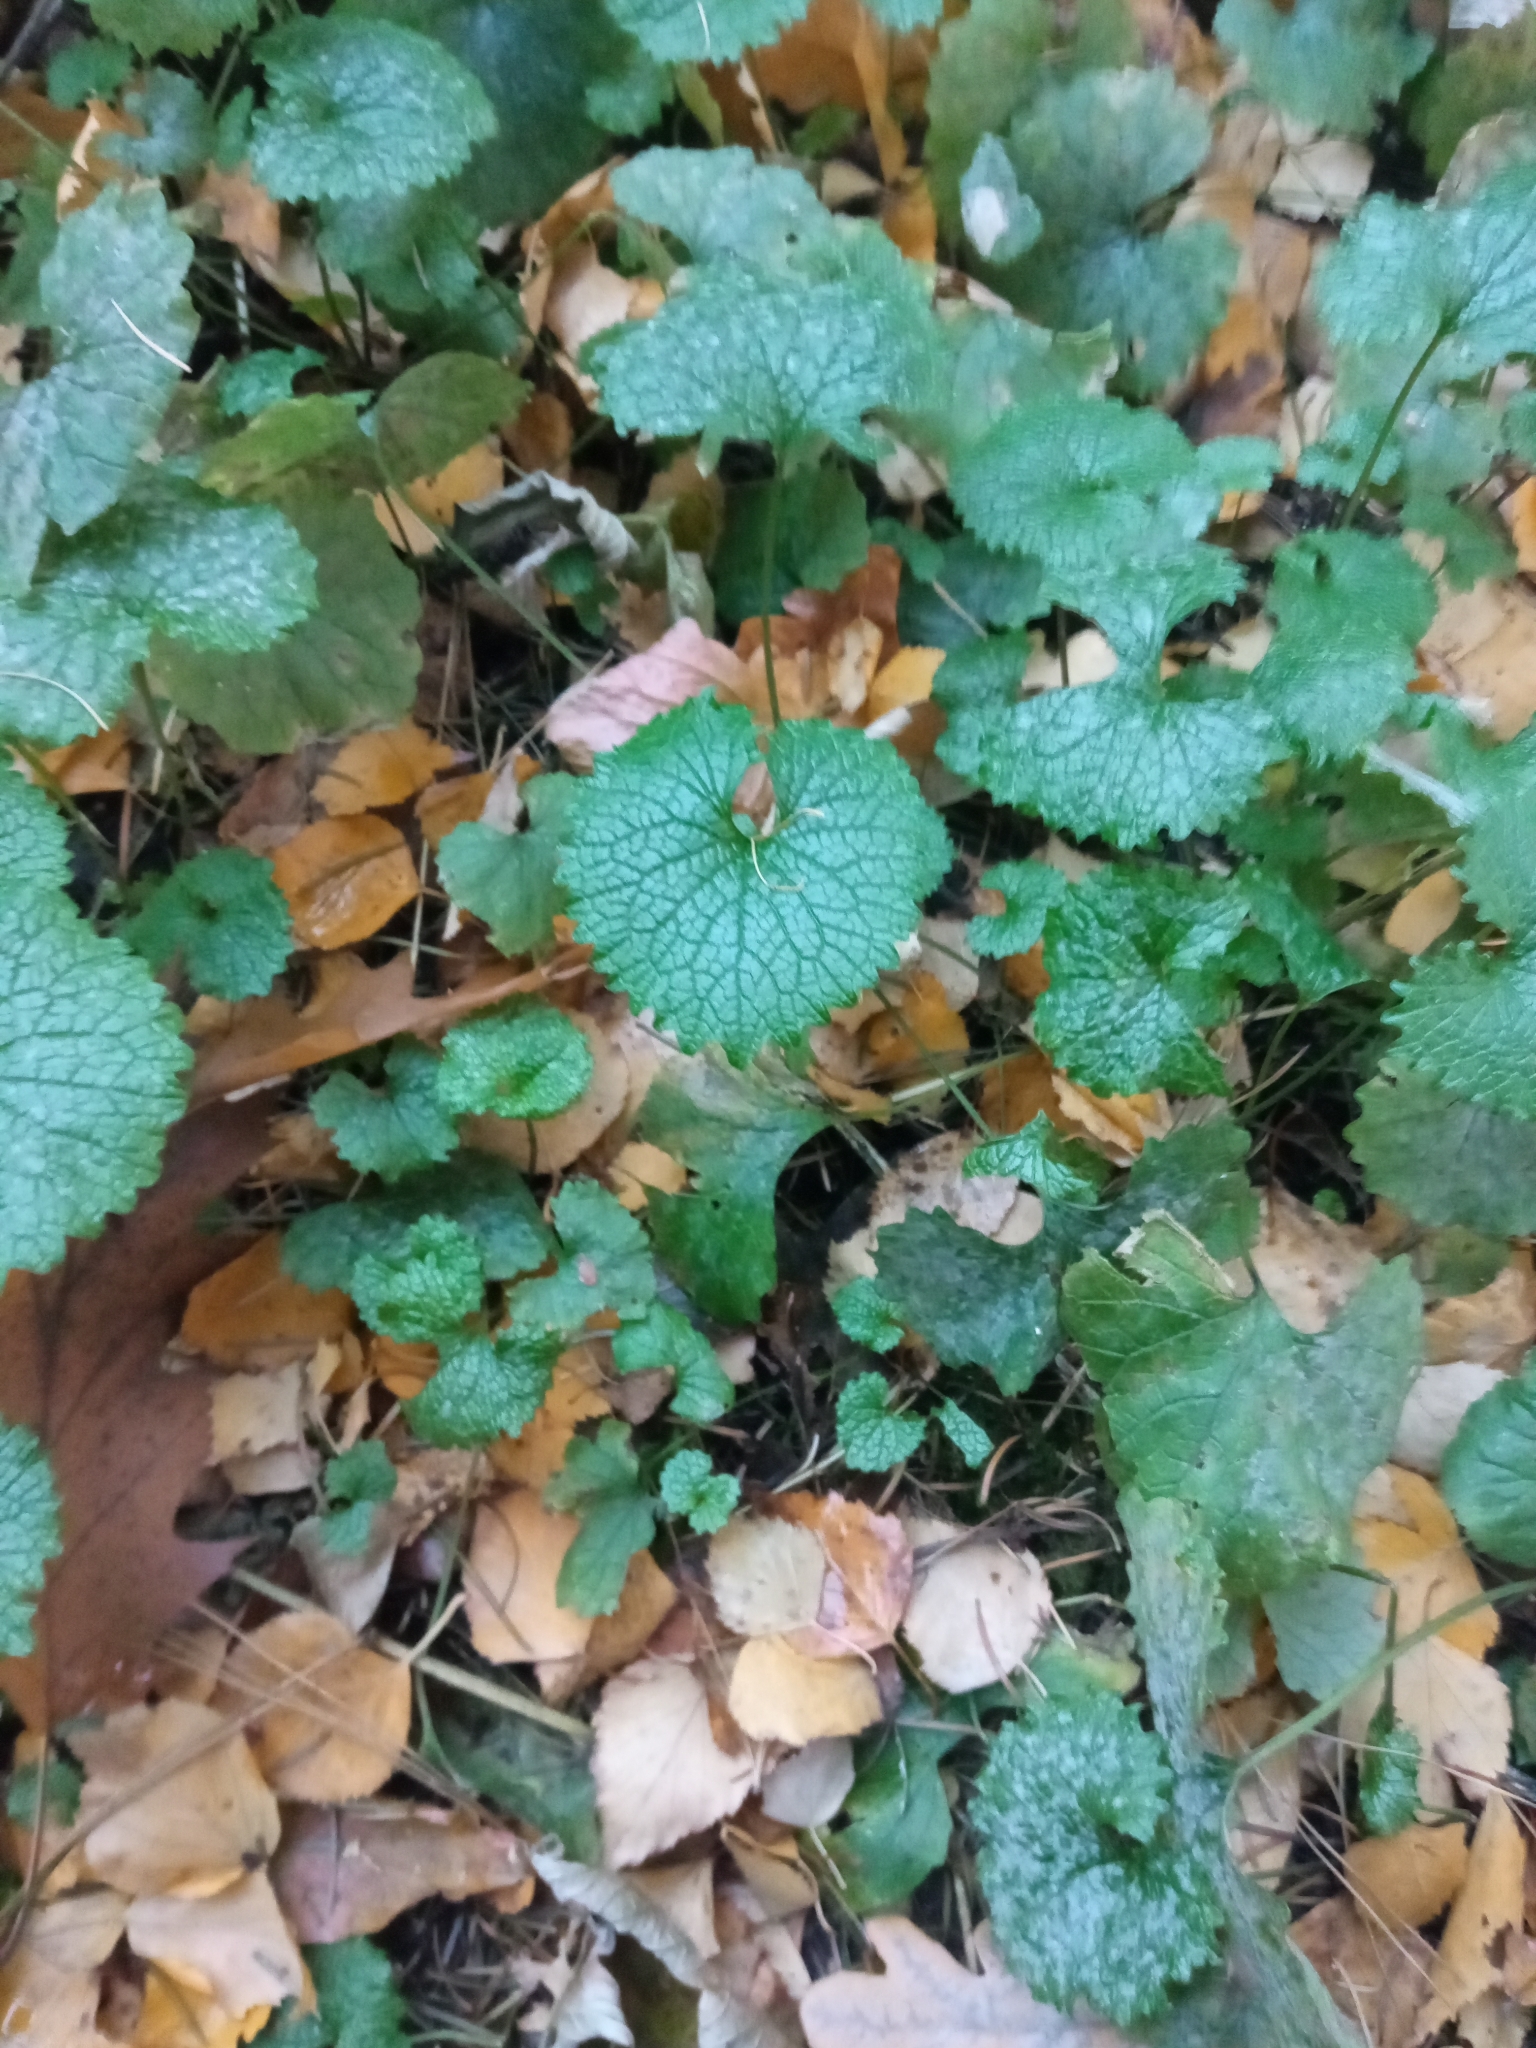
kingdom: Plantae
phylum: Tracheophyta
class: Magnoliopsida
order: Brassicales
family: Brassicaceae
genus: Alliaria
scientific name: Alliaria petiolata
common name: Garlic mustard
